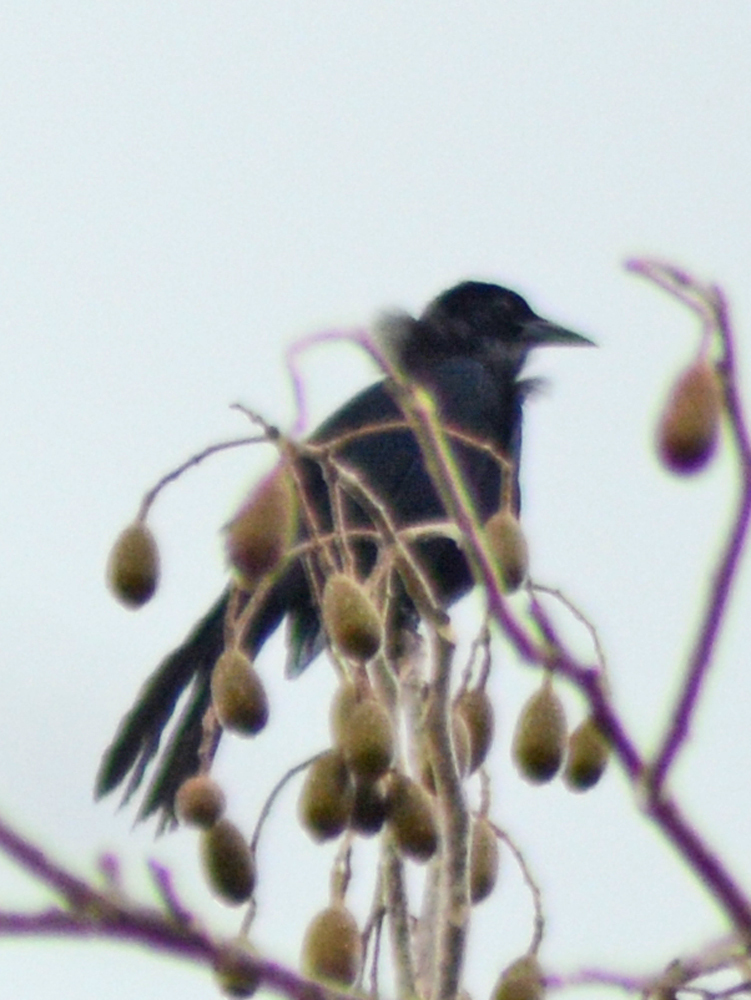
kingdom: Animalia
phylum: Chordata
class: Aves
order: Passeriformes
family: Icteridae
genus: Dives
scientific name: Dives dives
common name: Melodious blackbird
